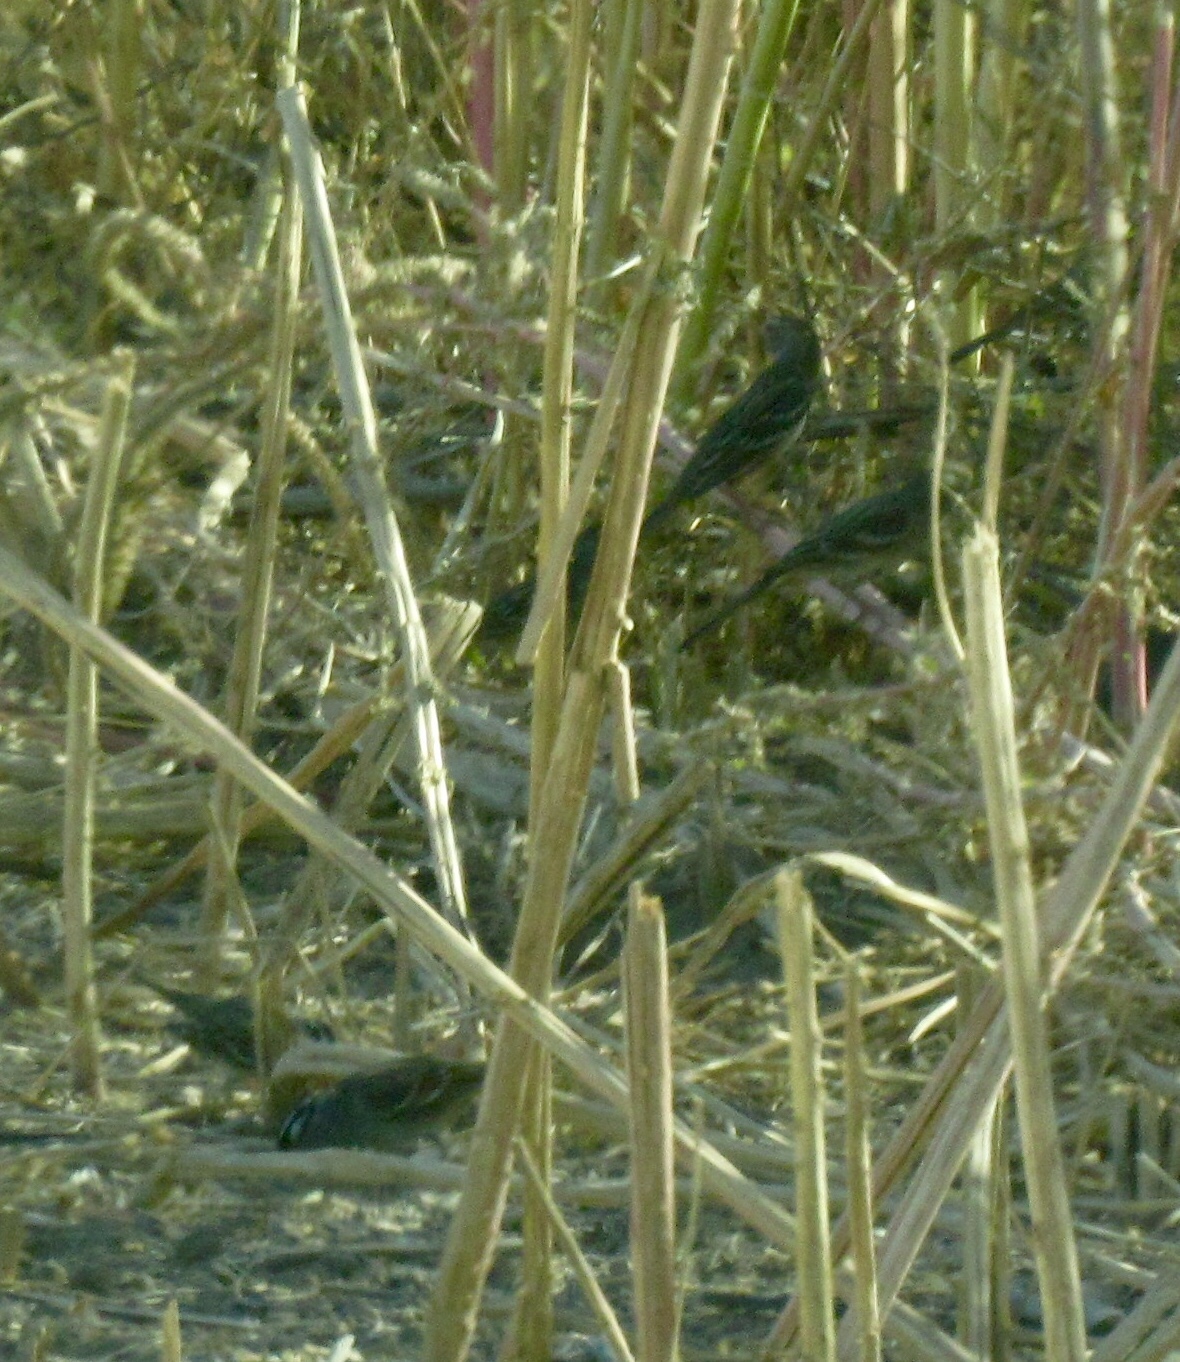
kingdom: Animalia
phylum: Chordata
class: Aves
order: Passeriformes
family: Passerellidae
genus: Zonotrichia
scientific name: Zonotrichia leucophrys
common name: White-crowned sparrow
